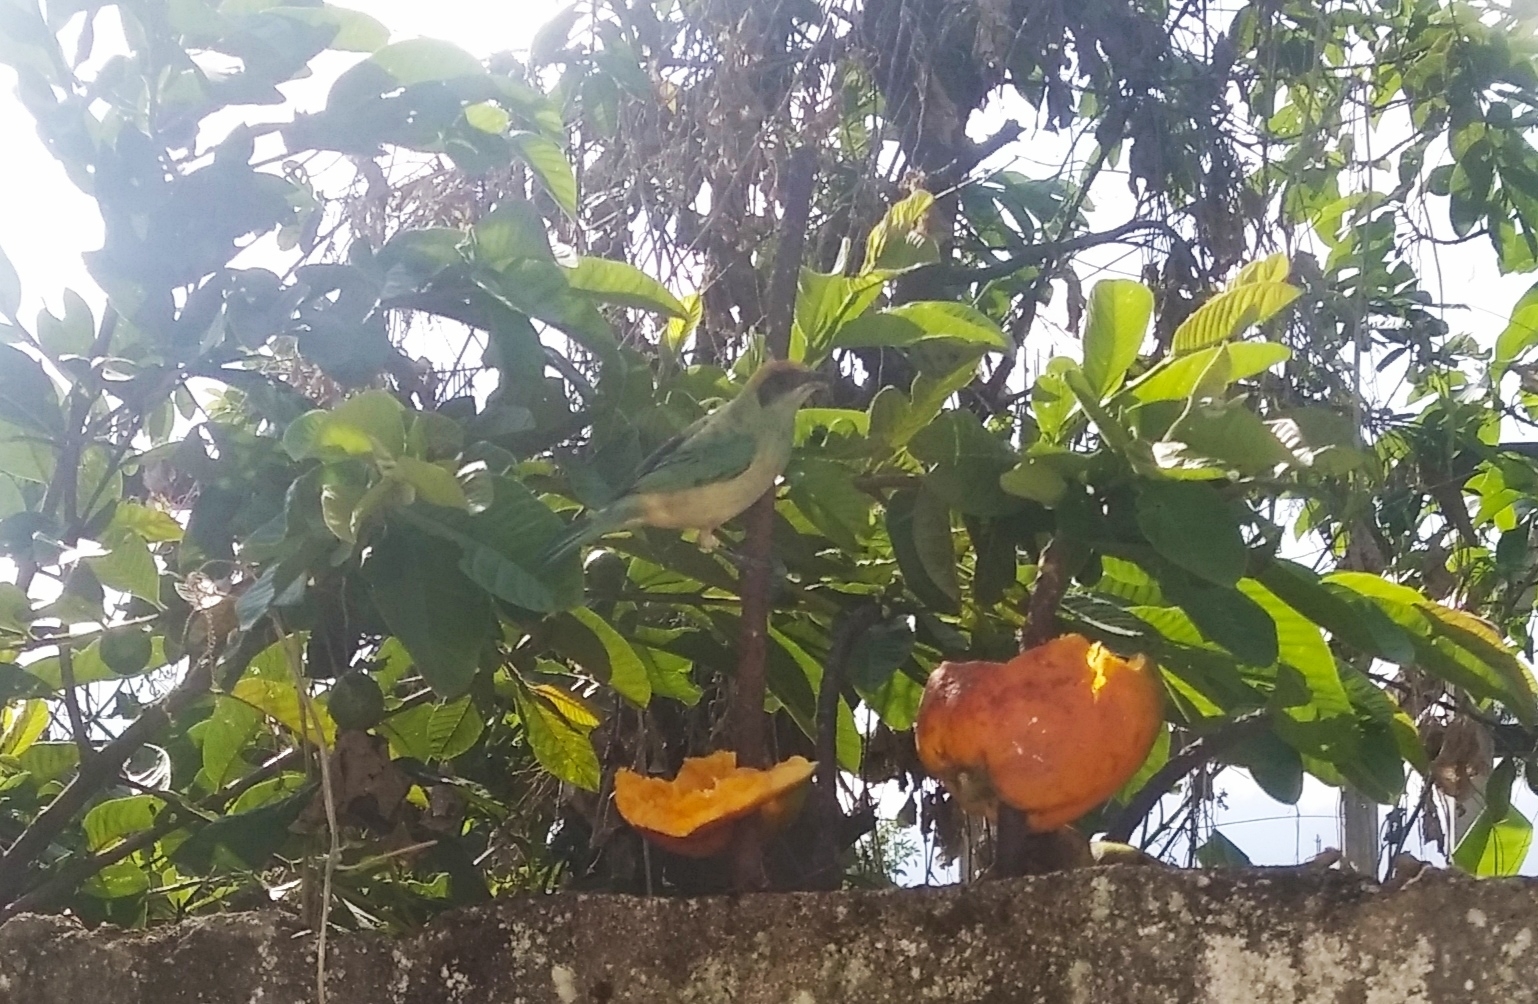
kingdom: Animalia
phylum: Chordata
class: Aves
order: Passeriformes
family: Thraupidae
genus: Stilpnia
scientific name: Stilpnia cayana
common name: Burnished-buff tanager
